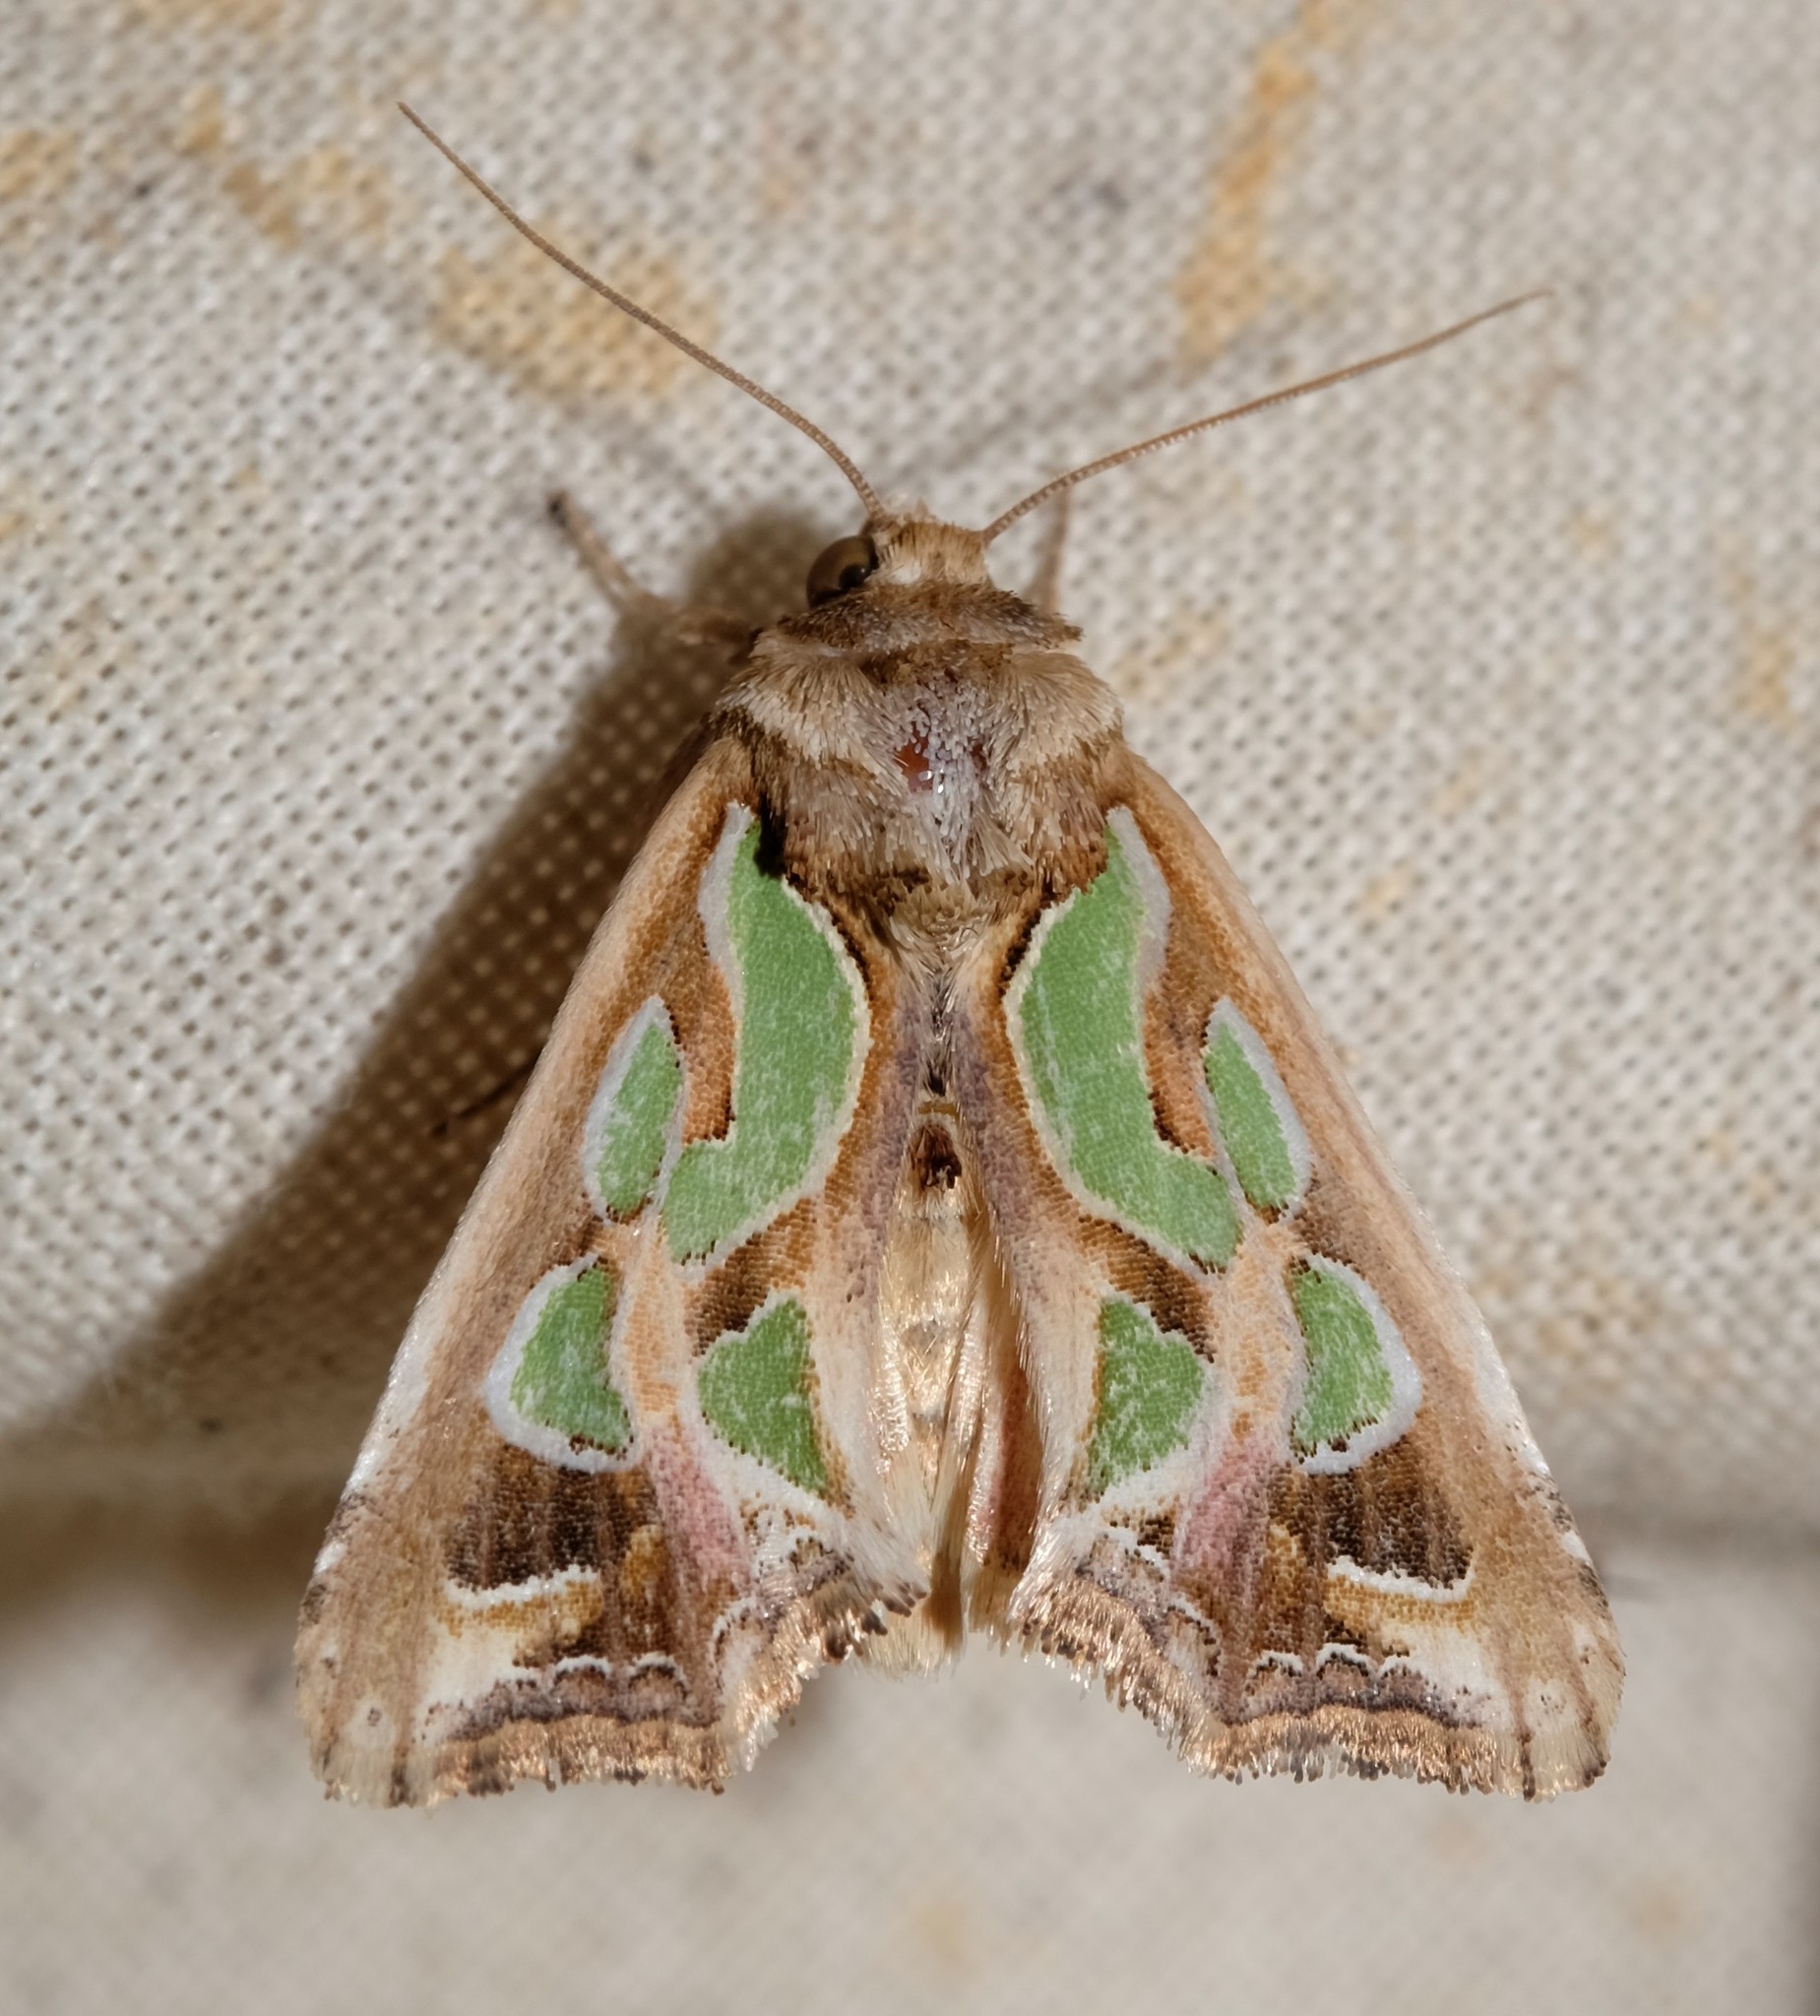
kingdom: Animalia
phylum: Arthropoda
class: Insecta
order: Lepidoptera
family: Noctuidae
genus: Cosmodes
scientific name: Cosmodes elegans
